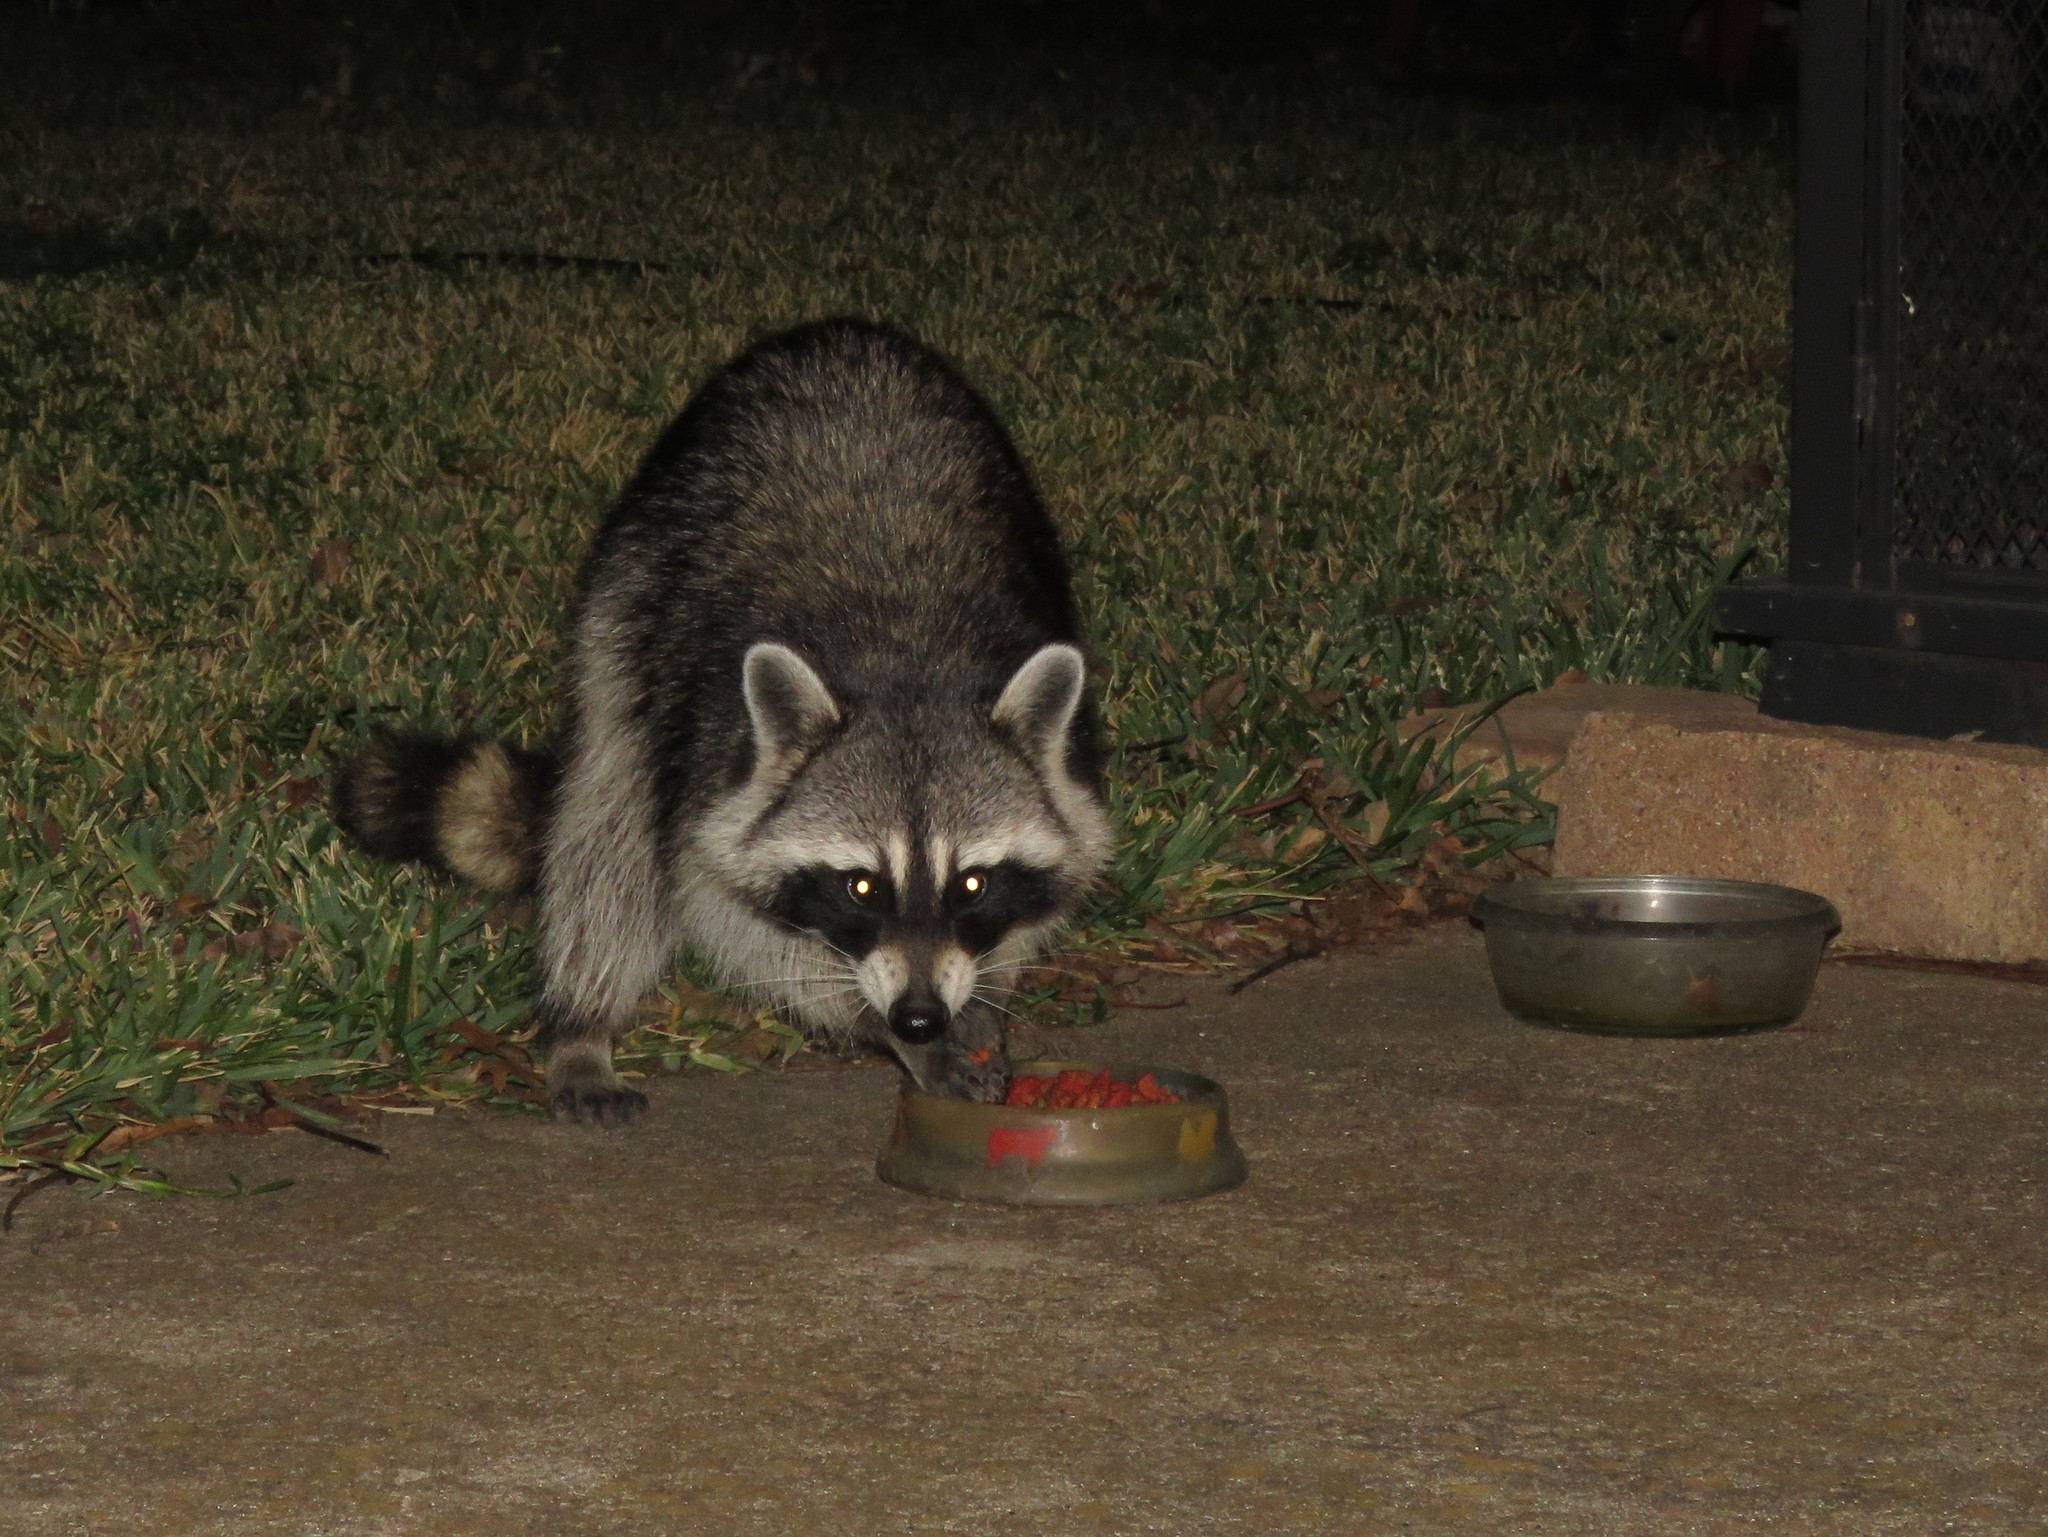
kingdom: Animalia
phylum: Chordata
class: Mammalia
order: Carnivora
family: Procyonidae
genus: Procyon
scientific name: Procyon lotor
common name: Raccoon
